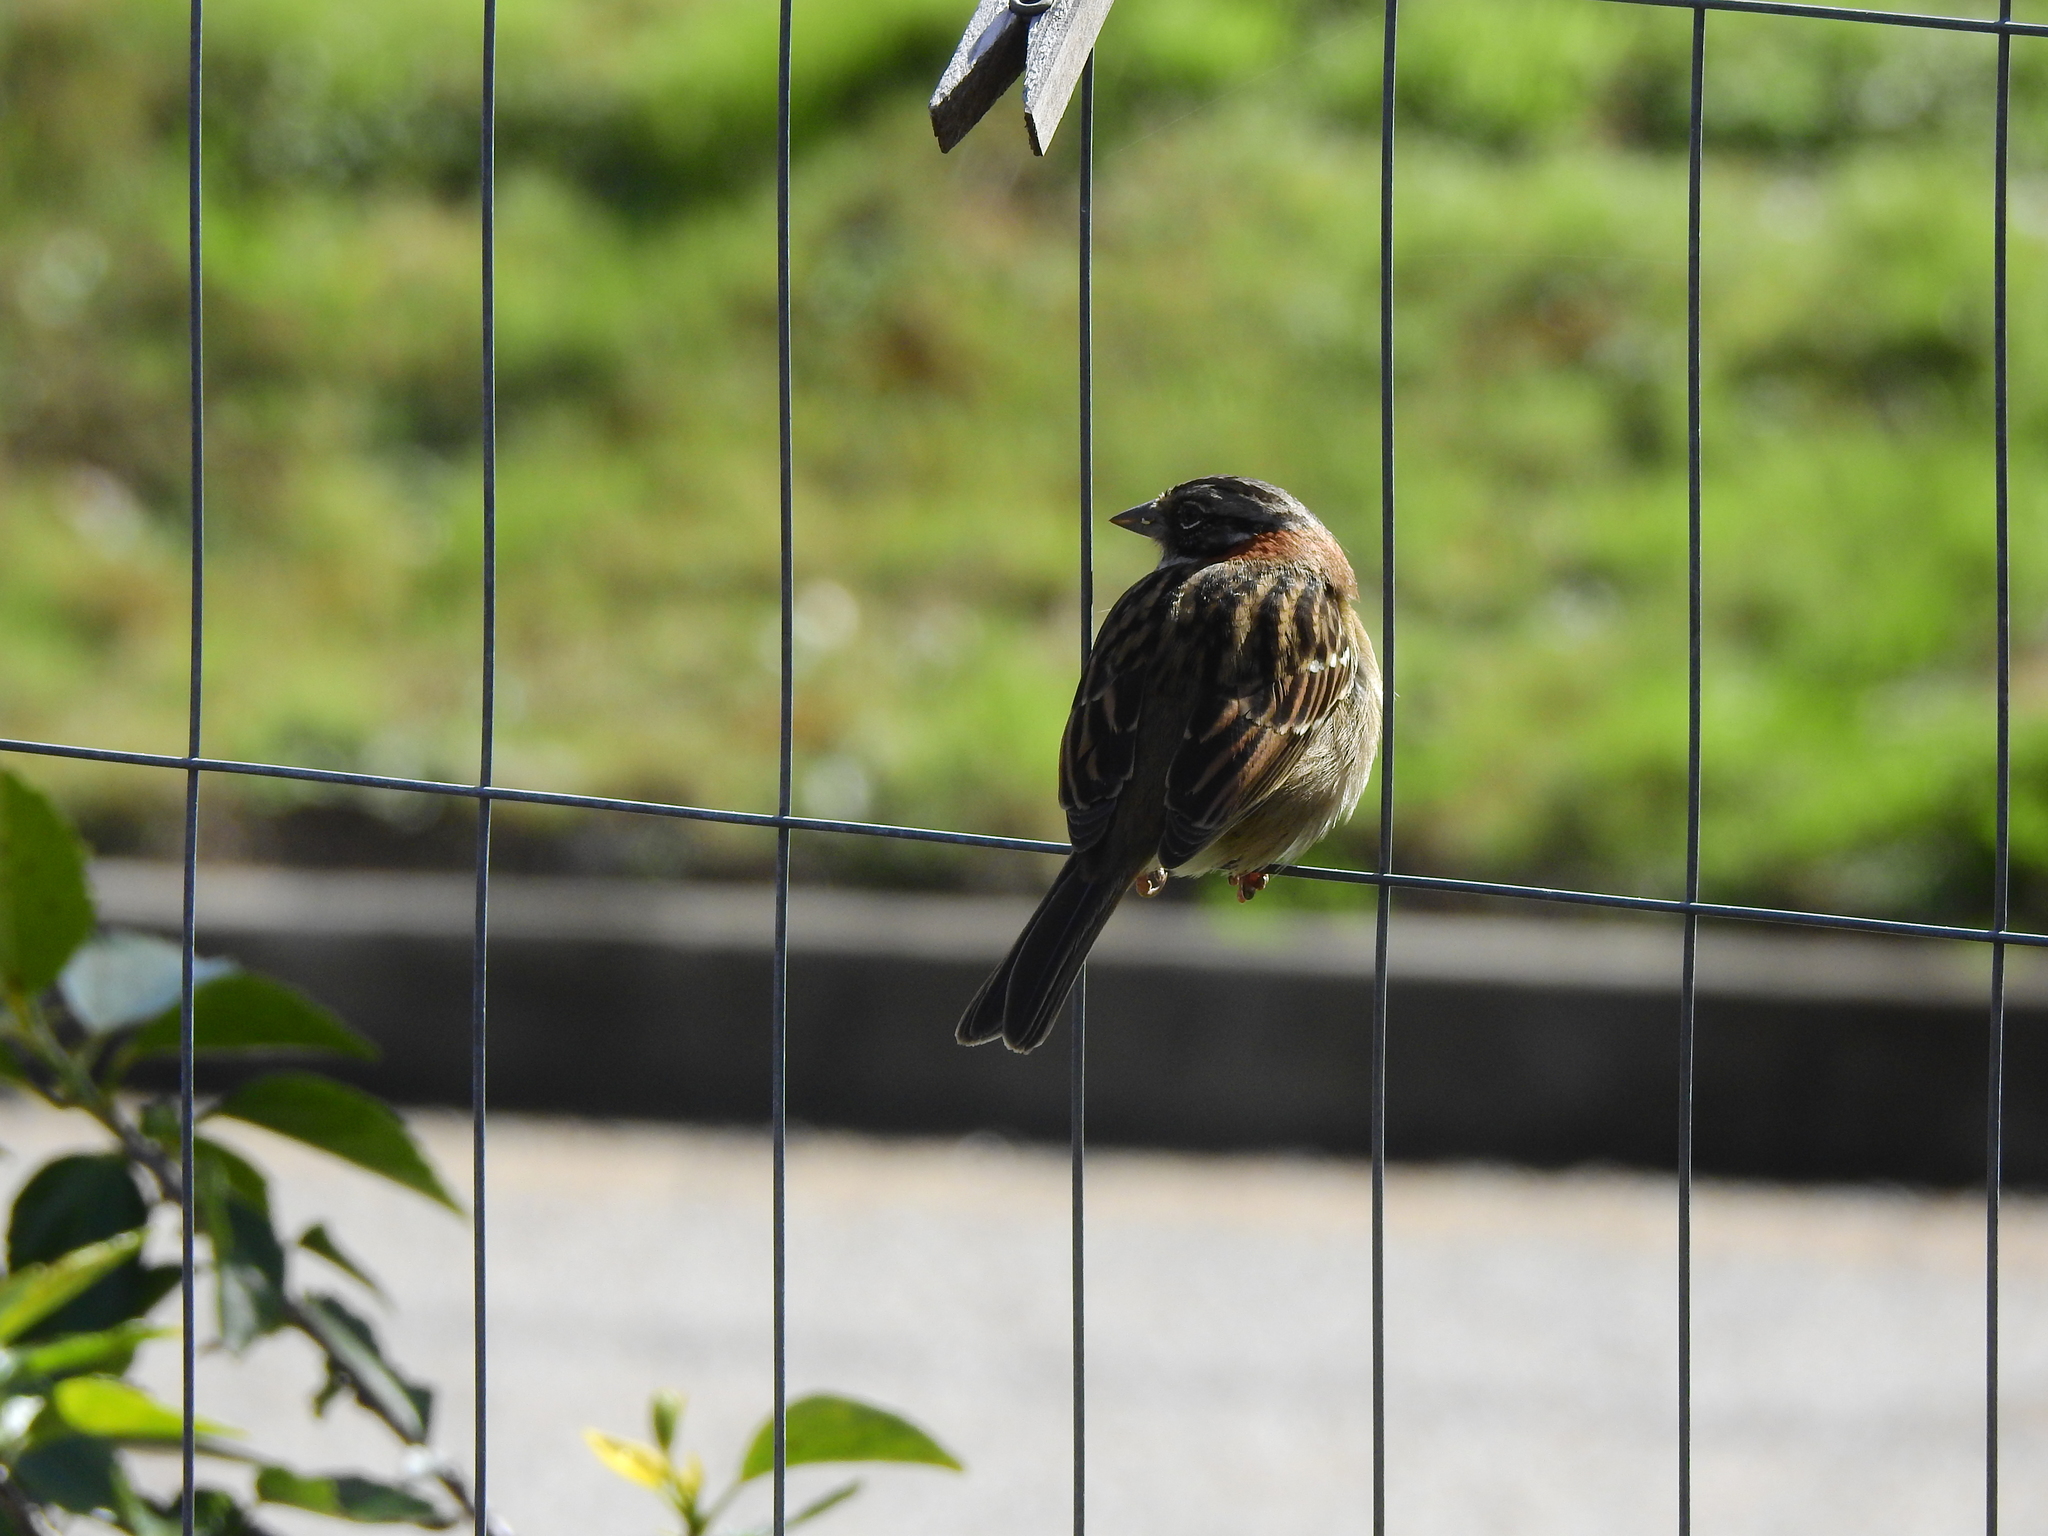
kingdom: Animalia
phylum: Chordata
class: Aves
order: Passeriformes
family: Passerellidae
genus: Zonotrichia
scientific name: Zonotrichia capensis
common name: Rufous-collared sparrow
